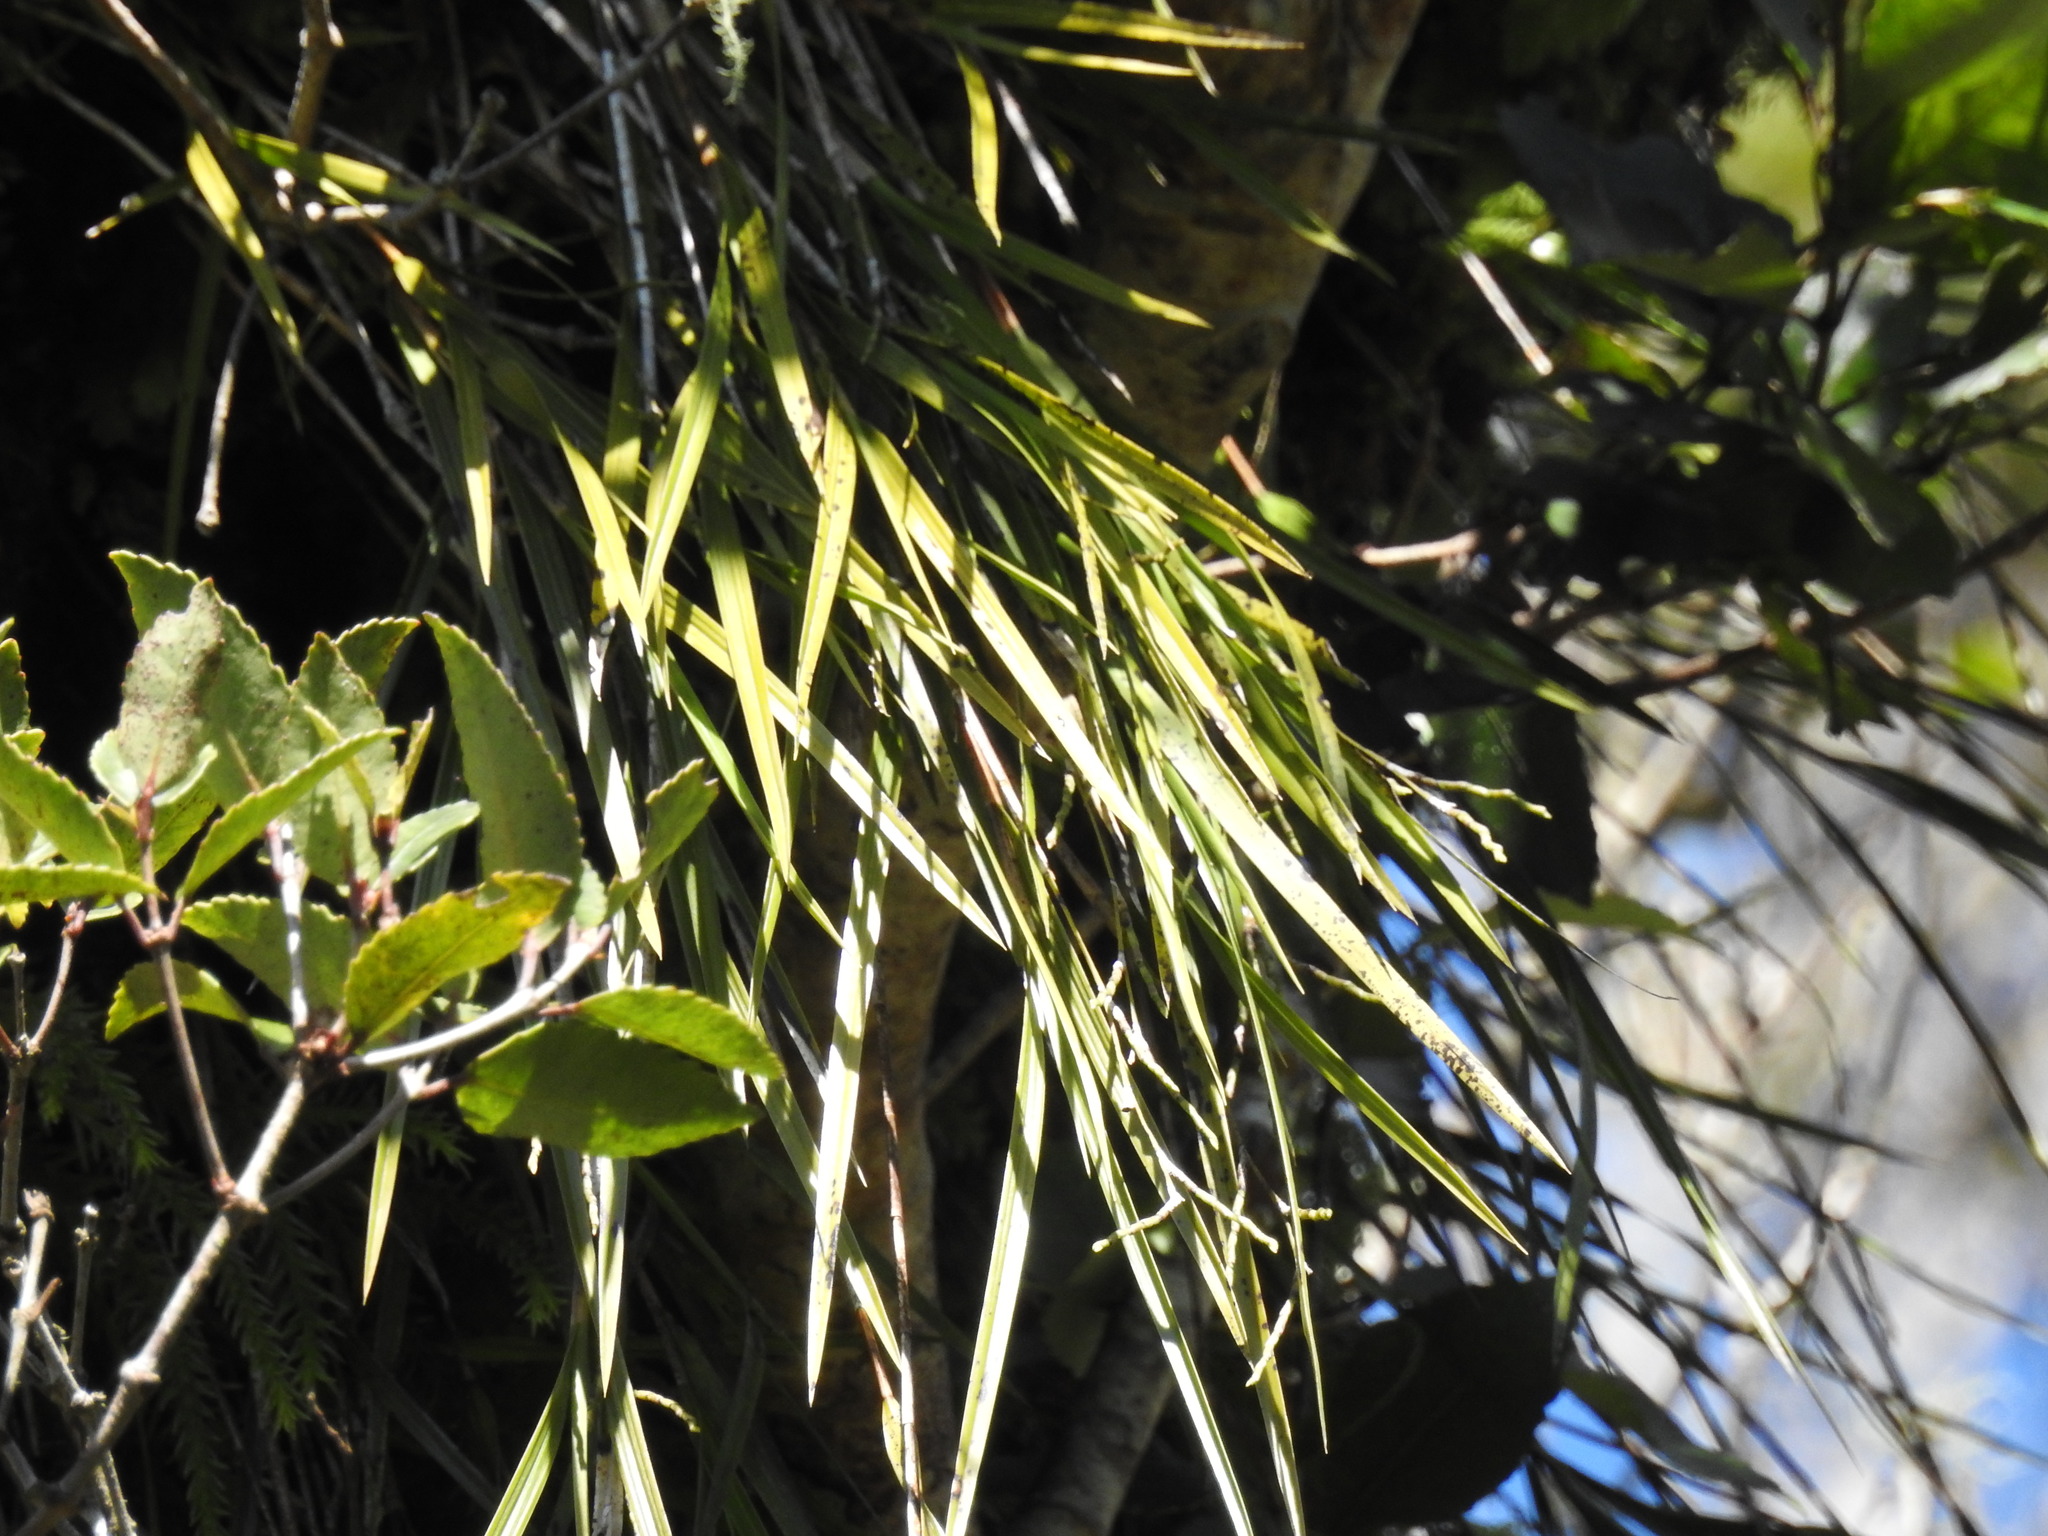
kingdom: Plantae
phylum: Tracheophyta
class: Liliopsida
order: Asparagales
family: Orchidaceae
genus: Earina
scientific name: Earina mucronata
